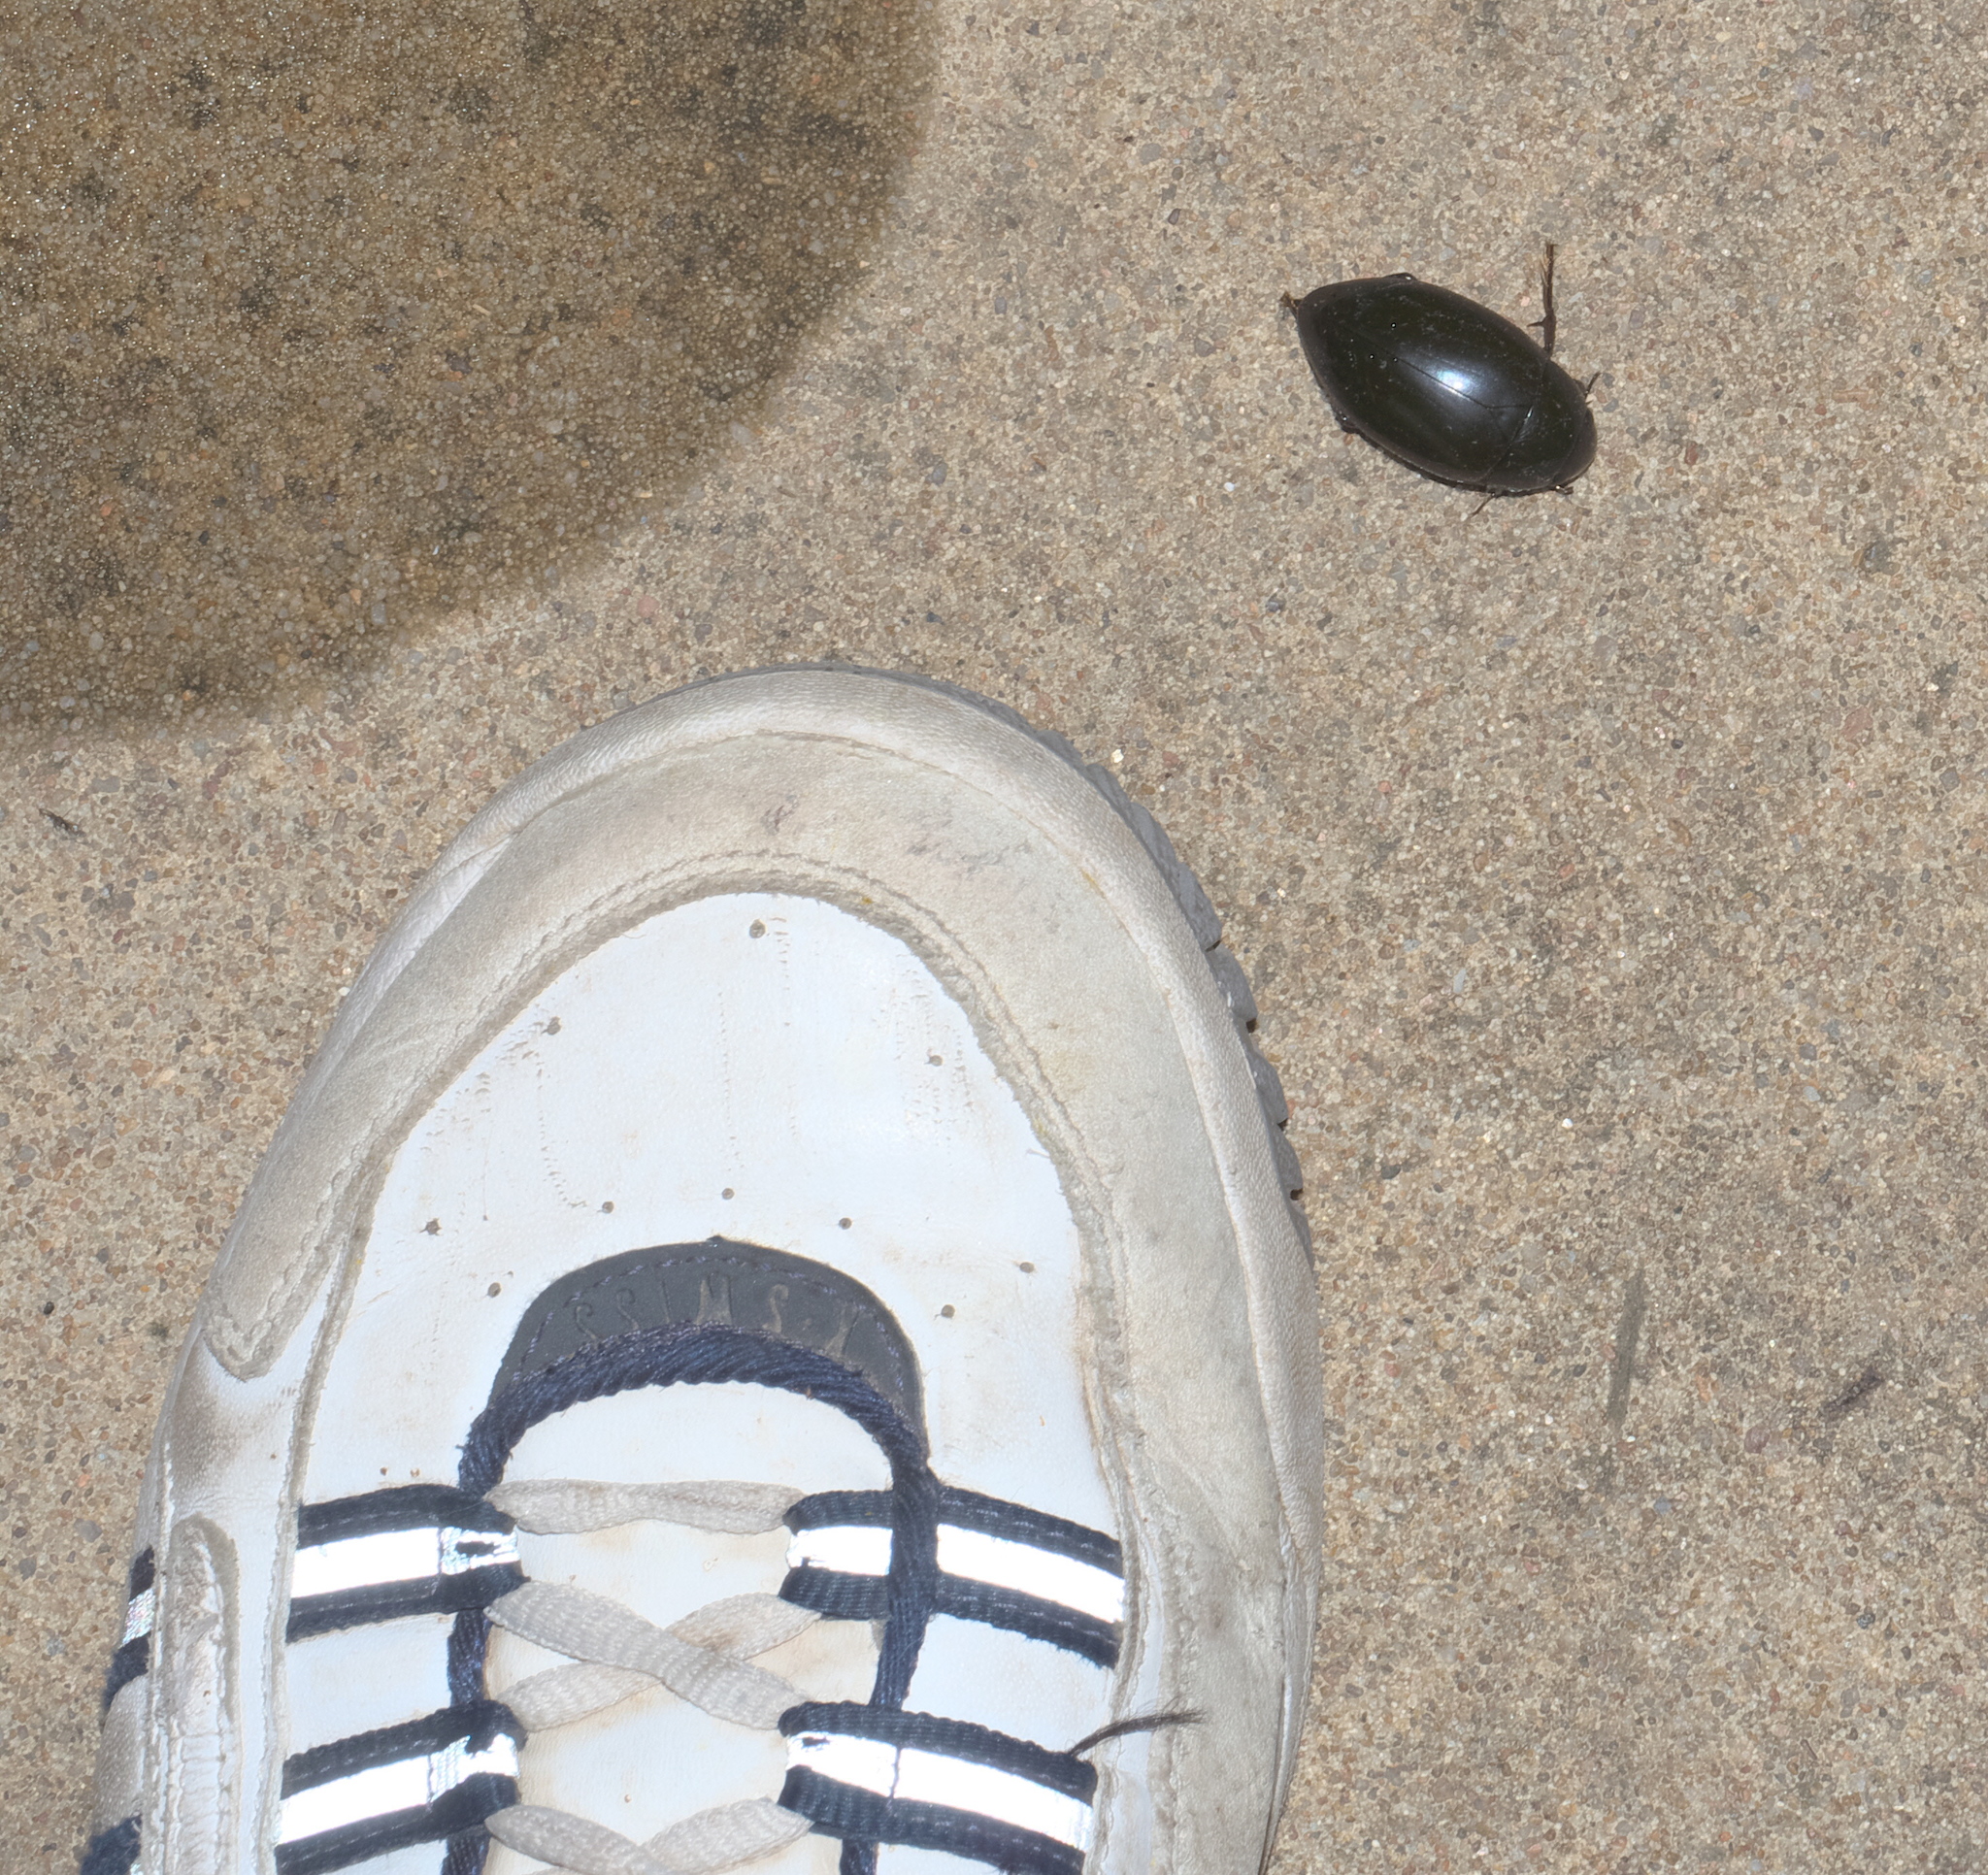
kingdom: Animalia
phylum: Arthropoda
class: Insecta
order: Coleoptera
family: Hydrophilidae
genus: Hydrophilus
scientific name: Hydrophilus ovatus
